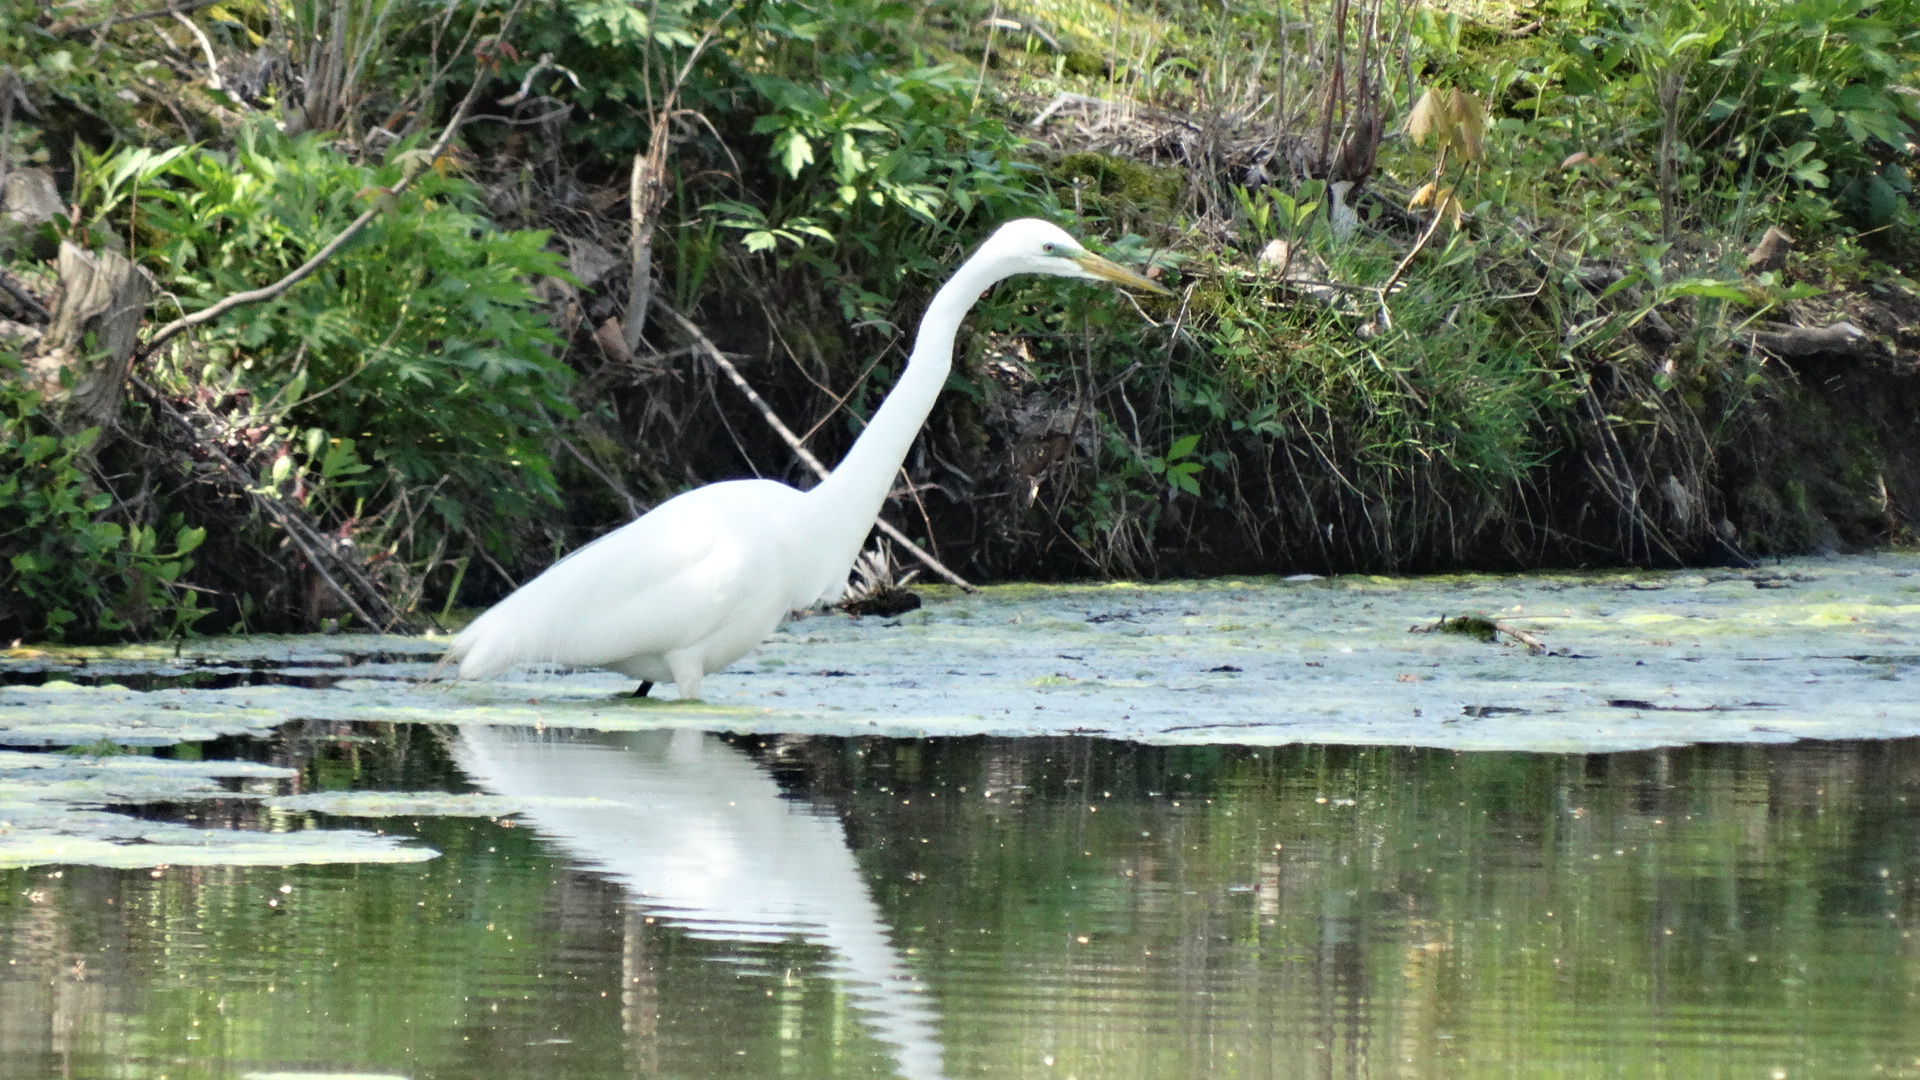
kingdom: Animalia
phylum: Chordata
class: Aves
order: Pelecaniformes
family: Ardeidae
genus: Ardea
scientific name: Ardea alba
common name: Great egret
